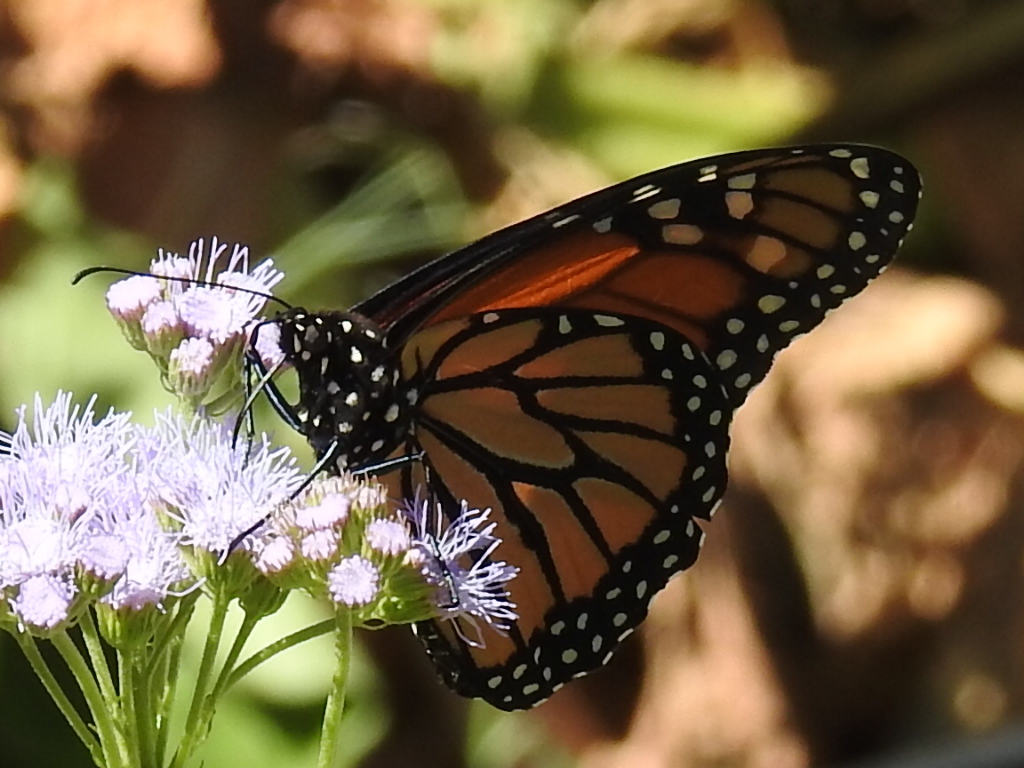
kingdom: Animalia
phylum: Arthropoda
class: Insecta
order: Lepidoptera
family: Nymphalidae
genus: Danaus
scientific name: Danaus plexippus
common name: Monarch
